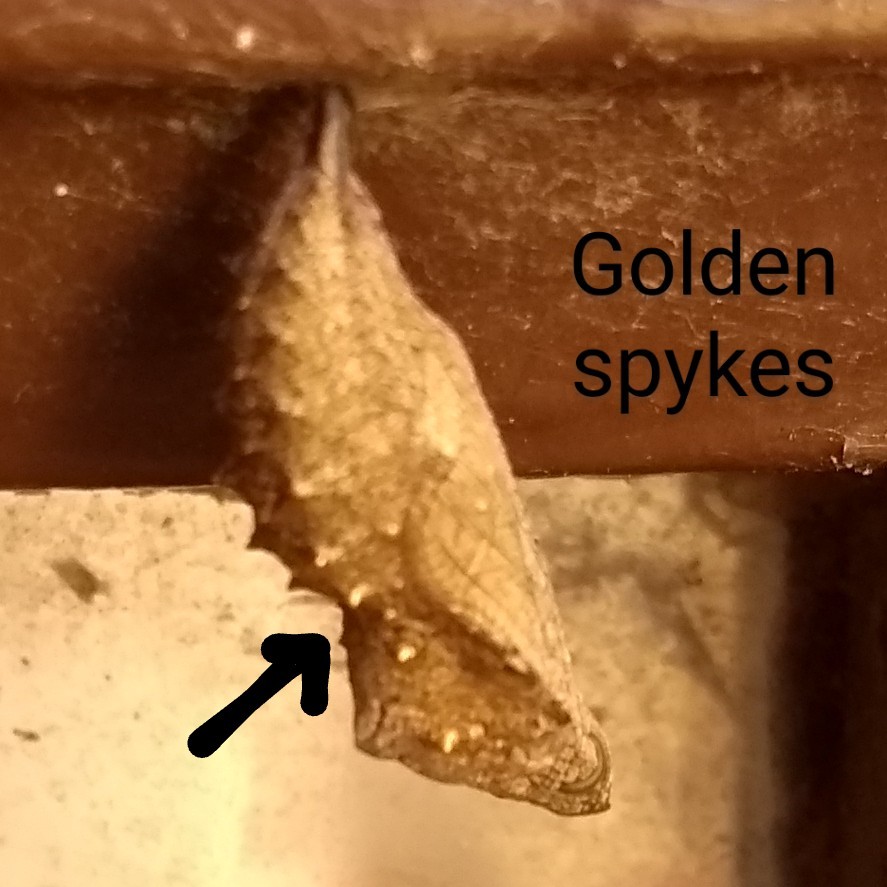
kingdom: Animalia
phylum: Arthropoda
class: Insecta
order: Lepidoptera
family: Nymphalidae
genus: Vanessa
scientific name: Vanessa atalanta
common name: Red admiral
